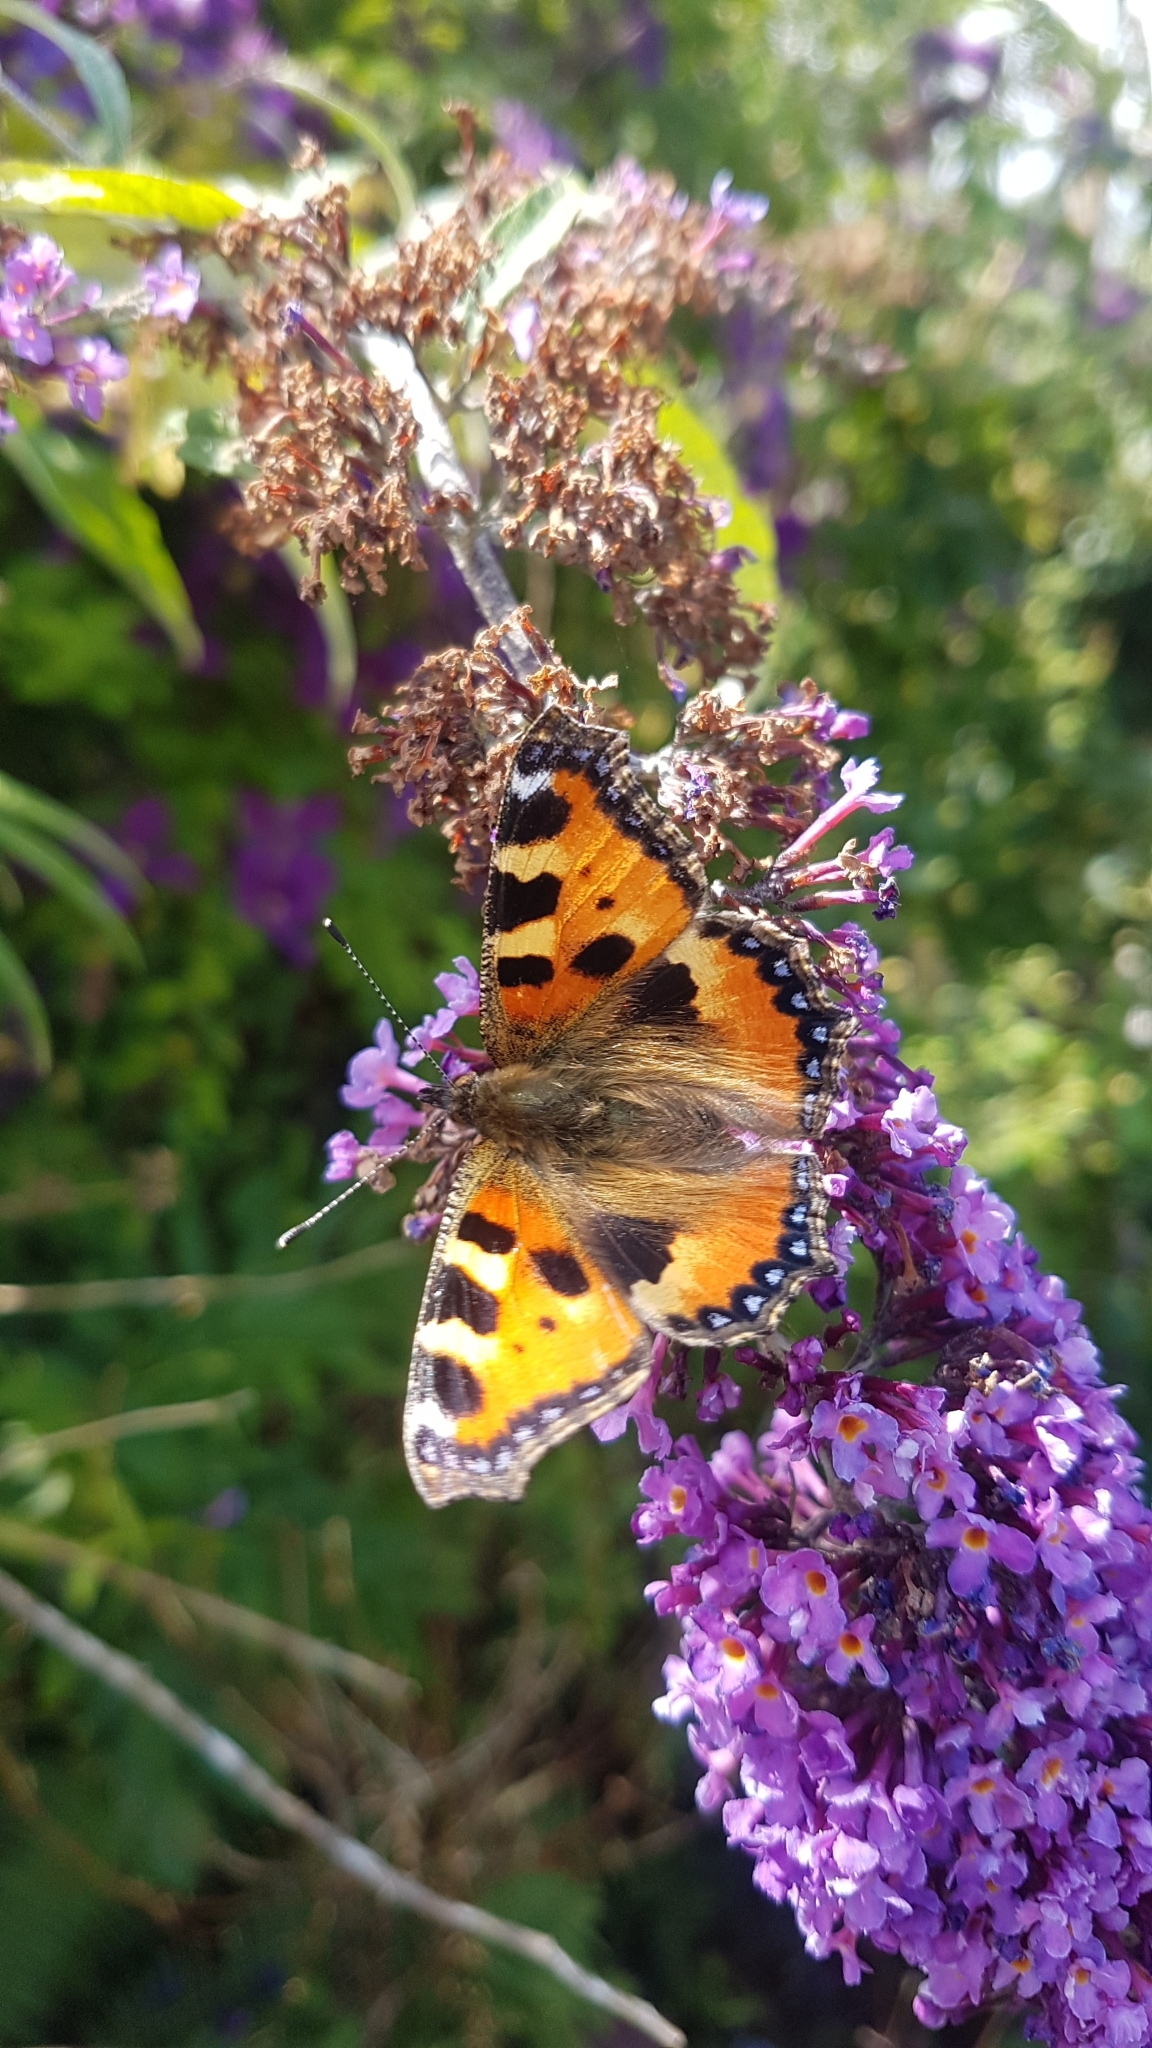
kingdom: Animalia
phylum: Arthropoda
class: Insecta
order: Lepidoptera
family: Nymphalidae
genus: Aglais
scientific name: Aglais urticae
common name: Small tortoiseshell
